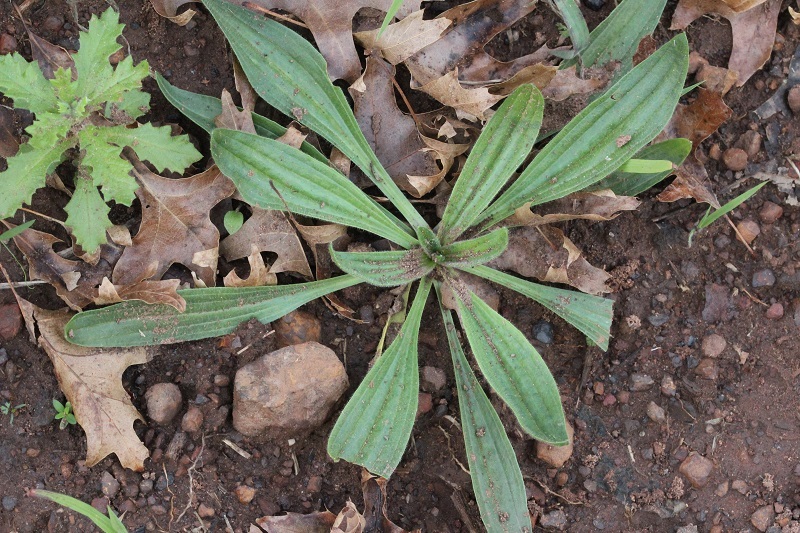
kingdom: Plantae
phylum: Tracheophyta
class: Magnoliopsida
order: Lamiales
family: Plantaginaceae
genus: Plantago
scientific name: Plantago lanceolata
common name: Ribwort plantain
